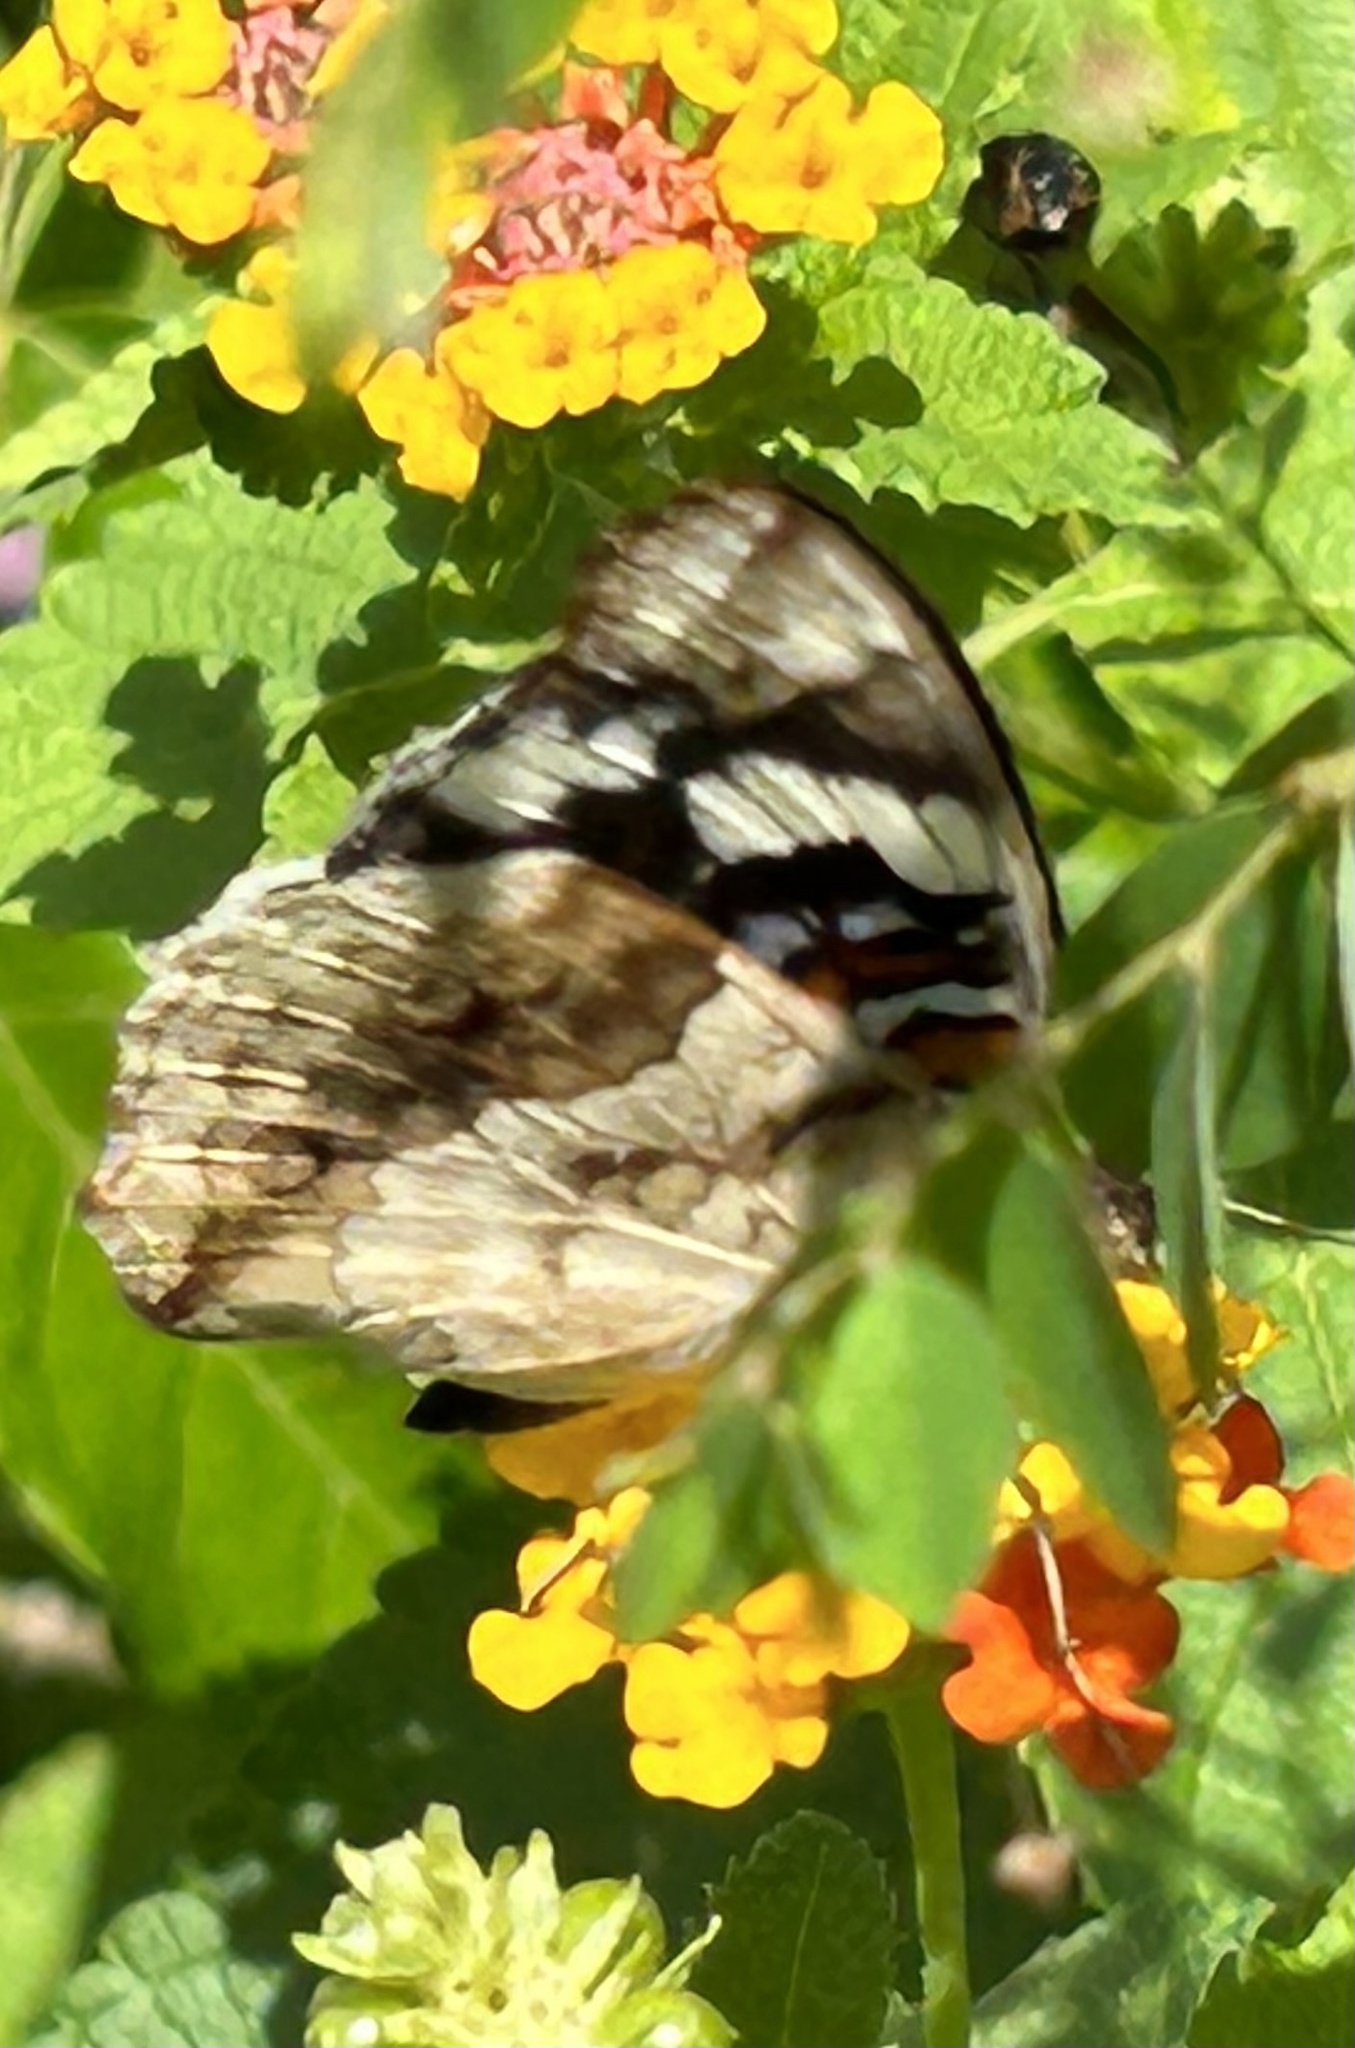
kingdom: Animalia
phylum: Arthropoda
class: Insecta
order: Lepidoptera
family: Nymphalidae
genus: Junonia
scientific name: Junonia oenone
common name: Dark blue pansy
